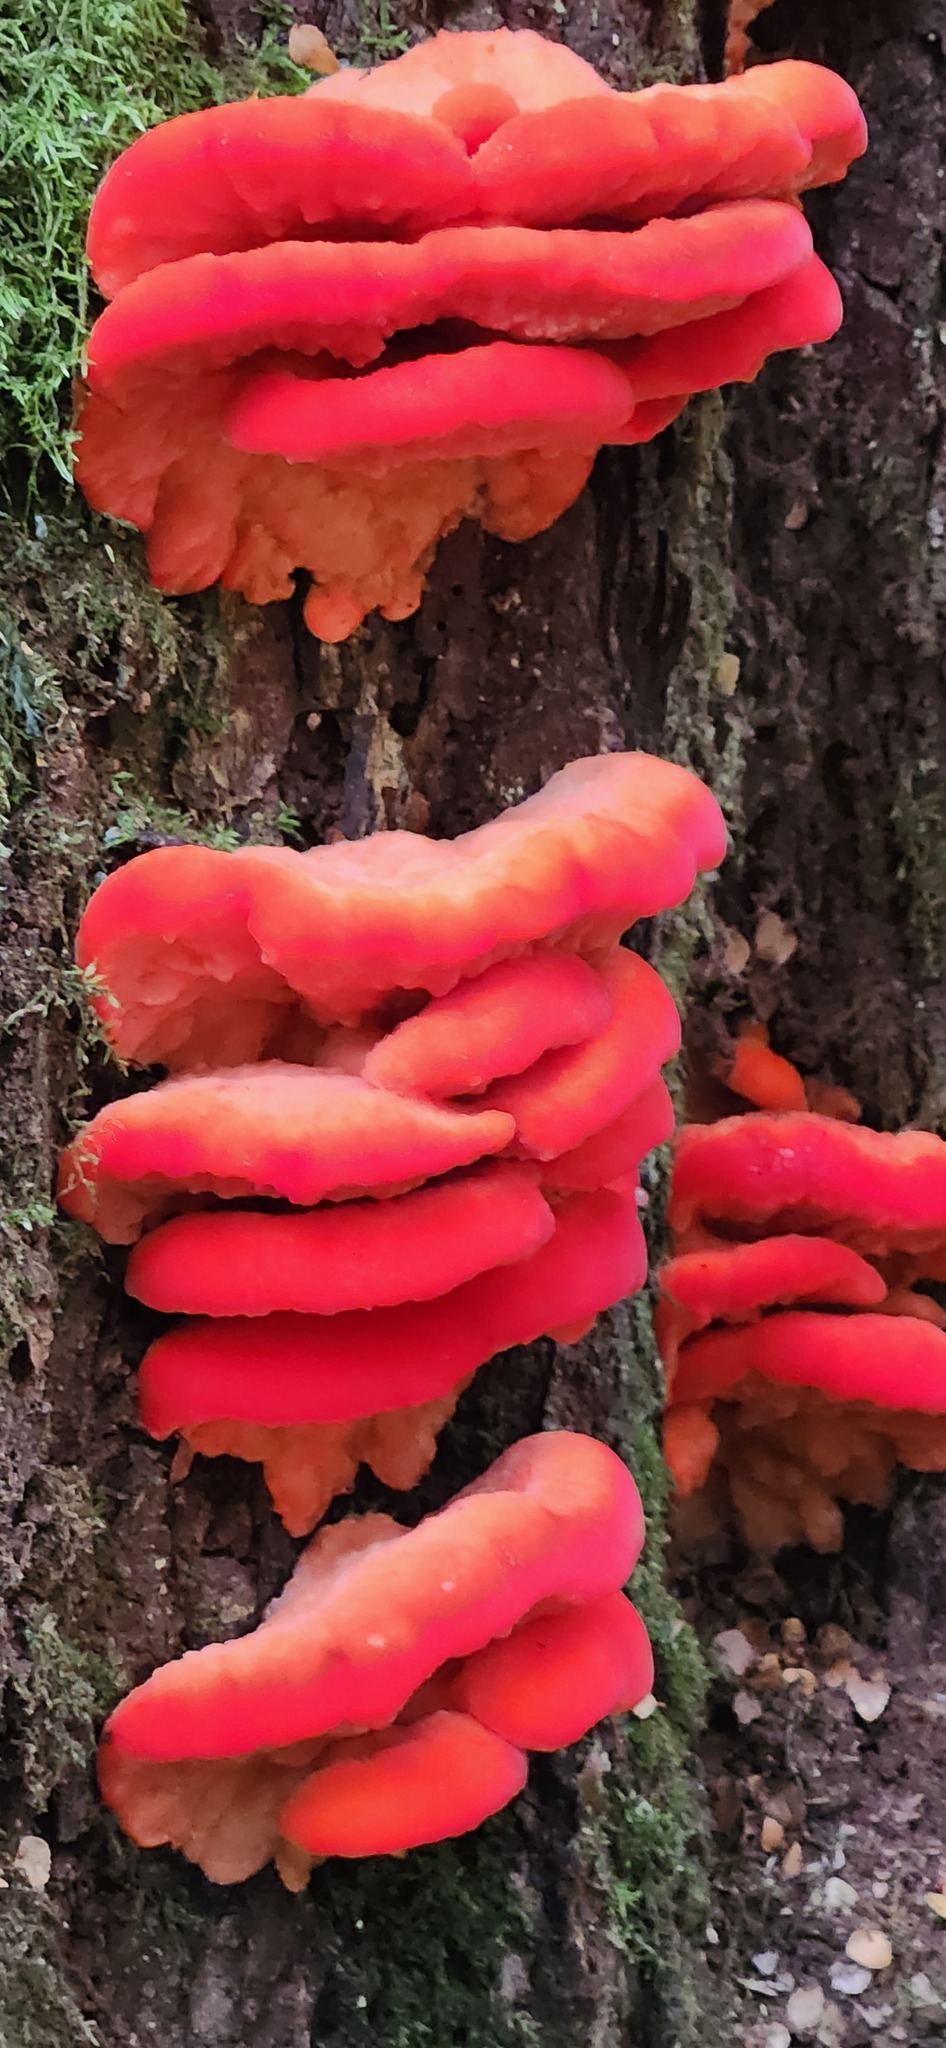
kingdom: Fungi
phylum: Basidiomycota
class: Agaricomycetes
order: Polyporales
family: Incrustoporiaceae
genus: Tyromyces
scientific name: Tyromyces pulcherrimus
